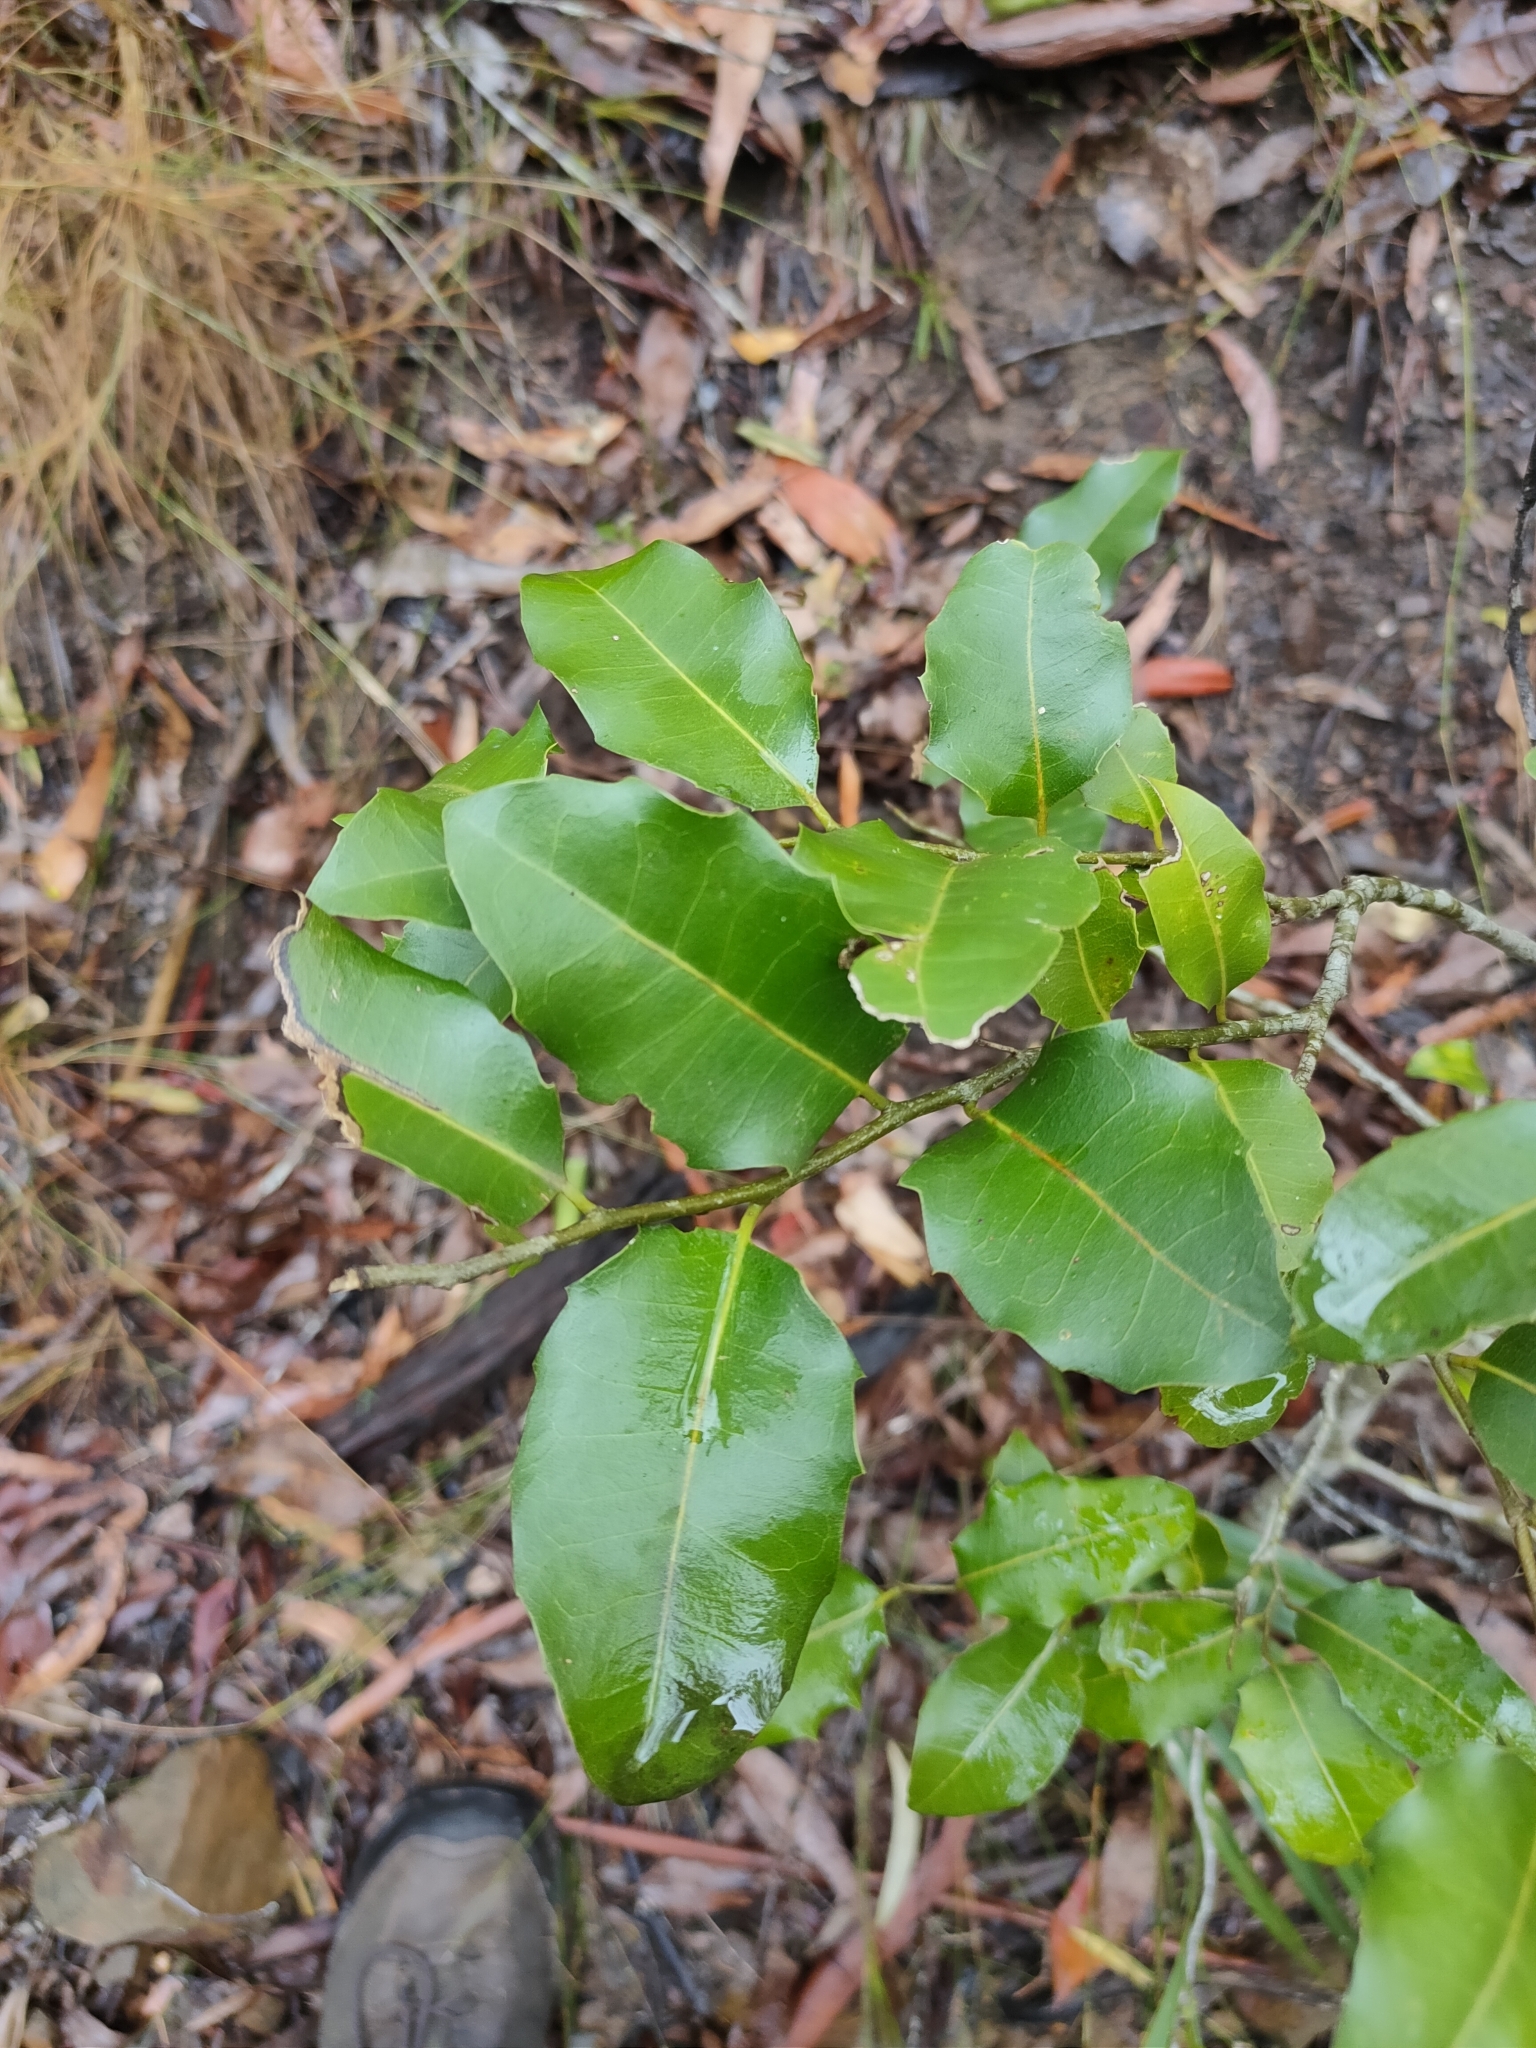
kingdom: Plantae
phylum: Tracheophyta
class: Magnoliopsida
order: Malpighiales
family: Putranjivaceae
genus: Drypetes
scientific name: Drypetes deplanchei
